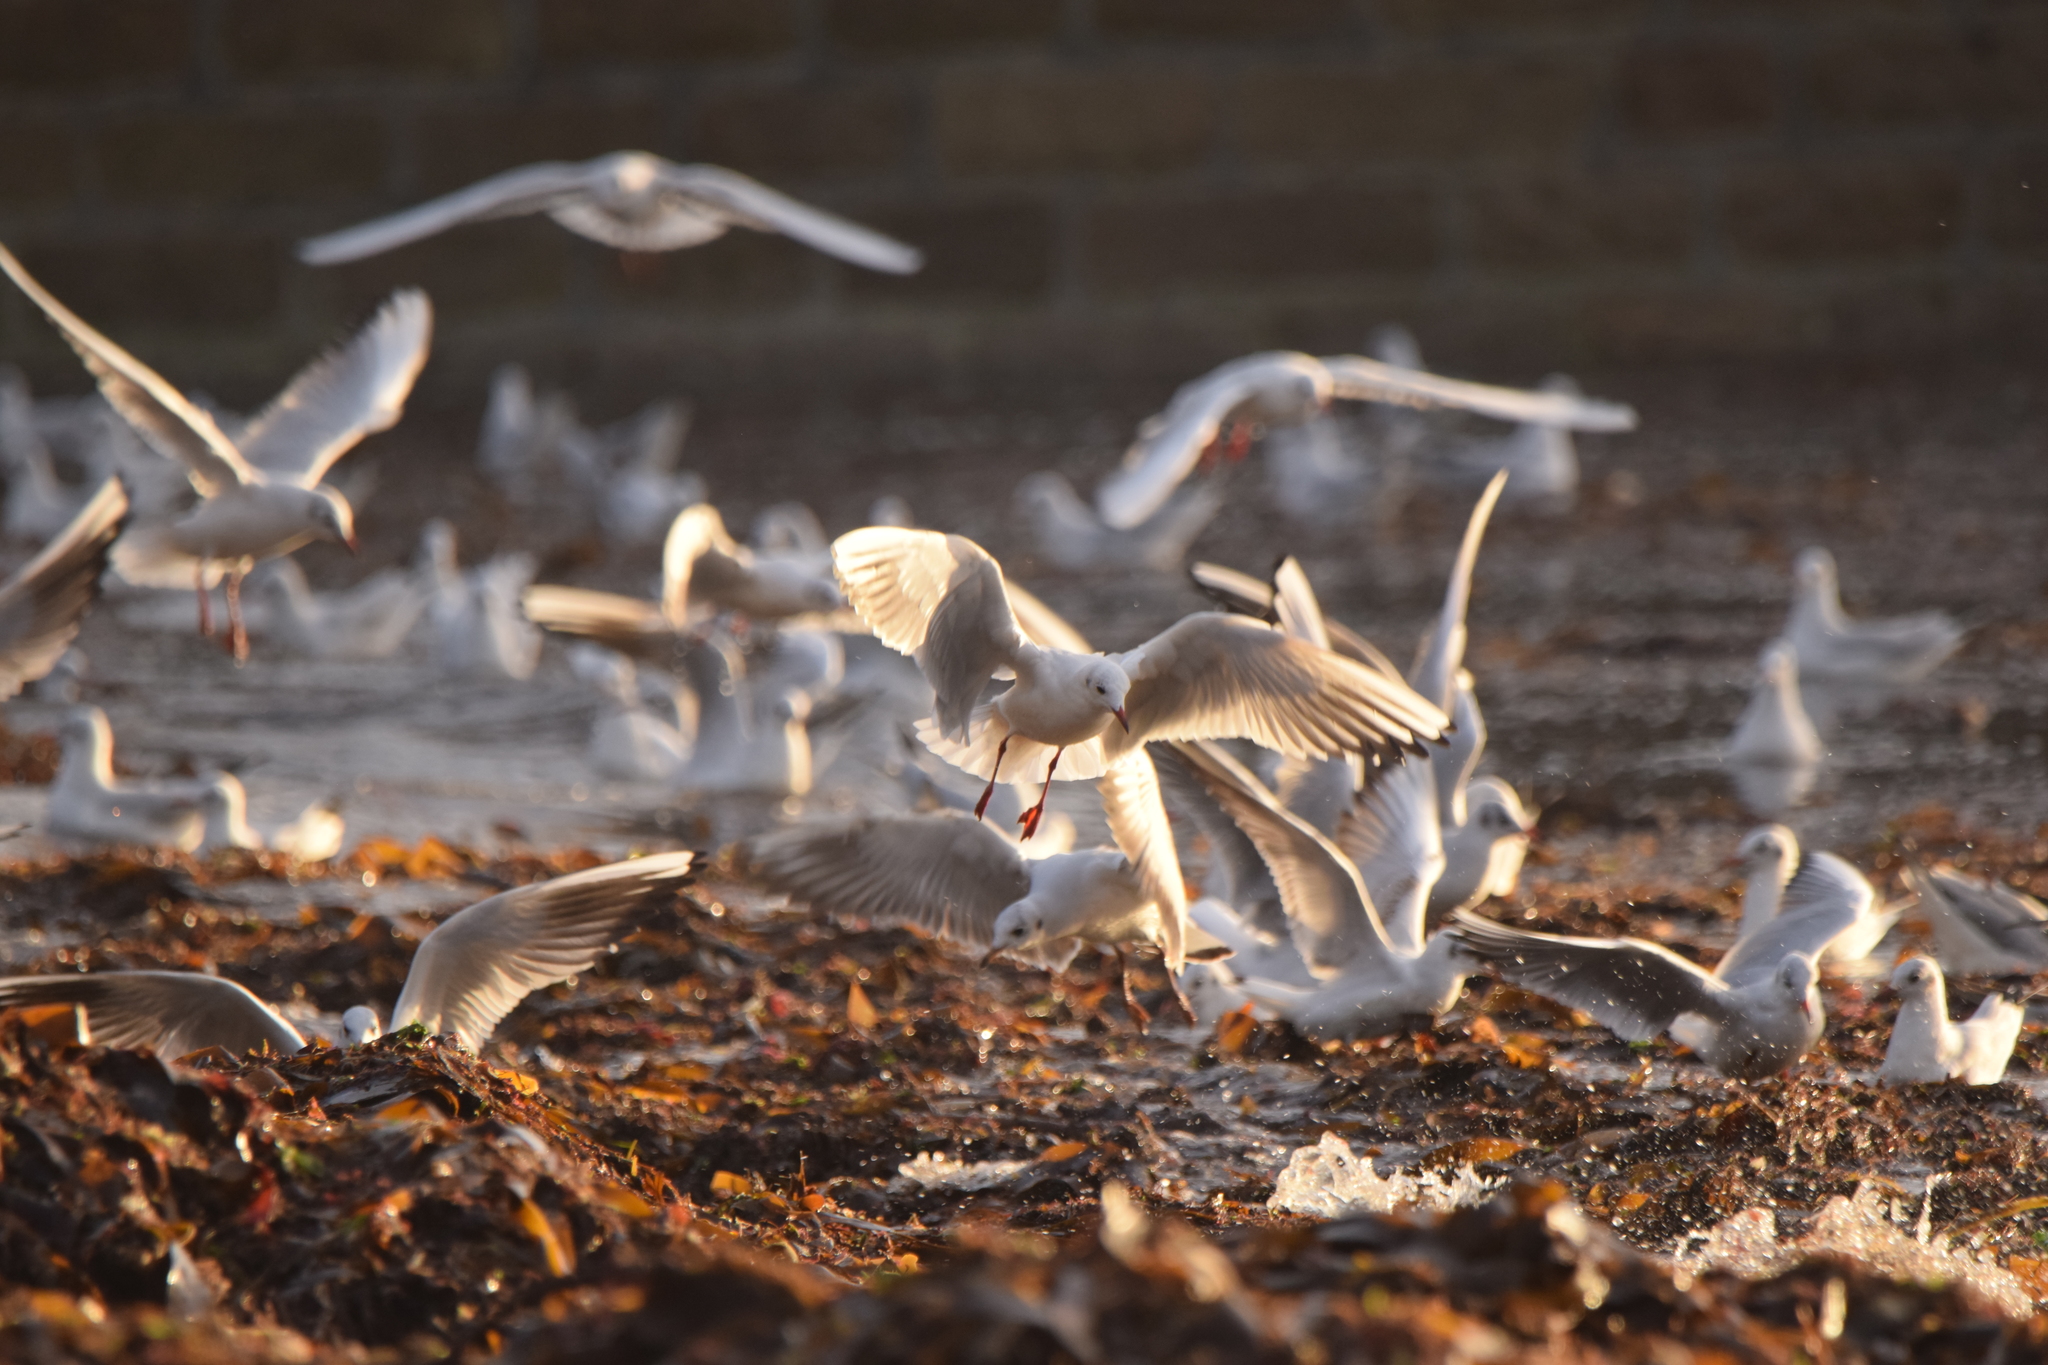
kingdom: Animalia
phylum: Chordata
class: Aves
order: Charadriiformes
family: Laridae
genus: Chroicocephalus
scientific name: Chroicocephalus ridibundus
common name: Black-headed gull
